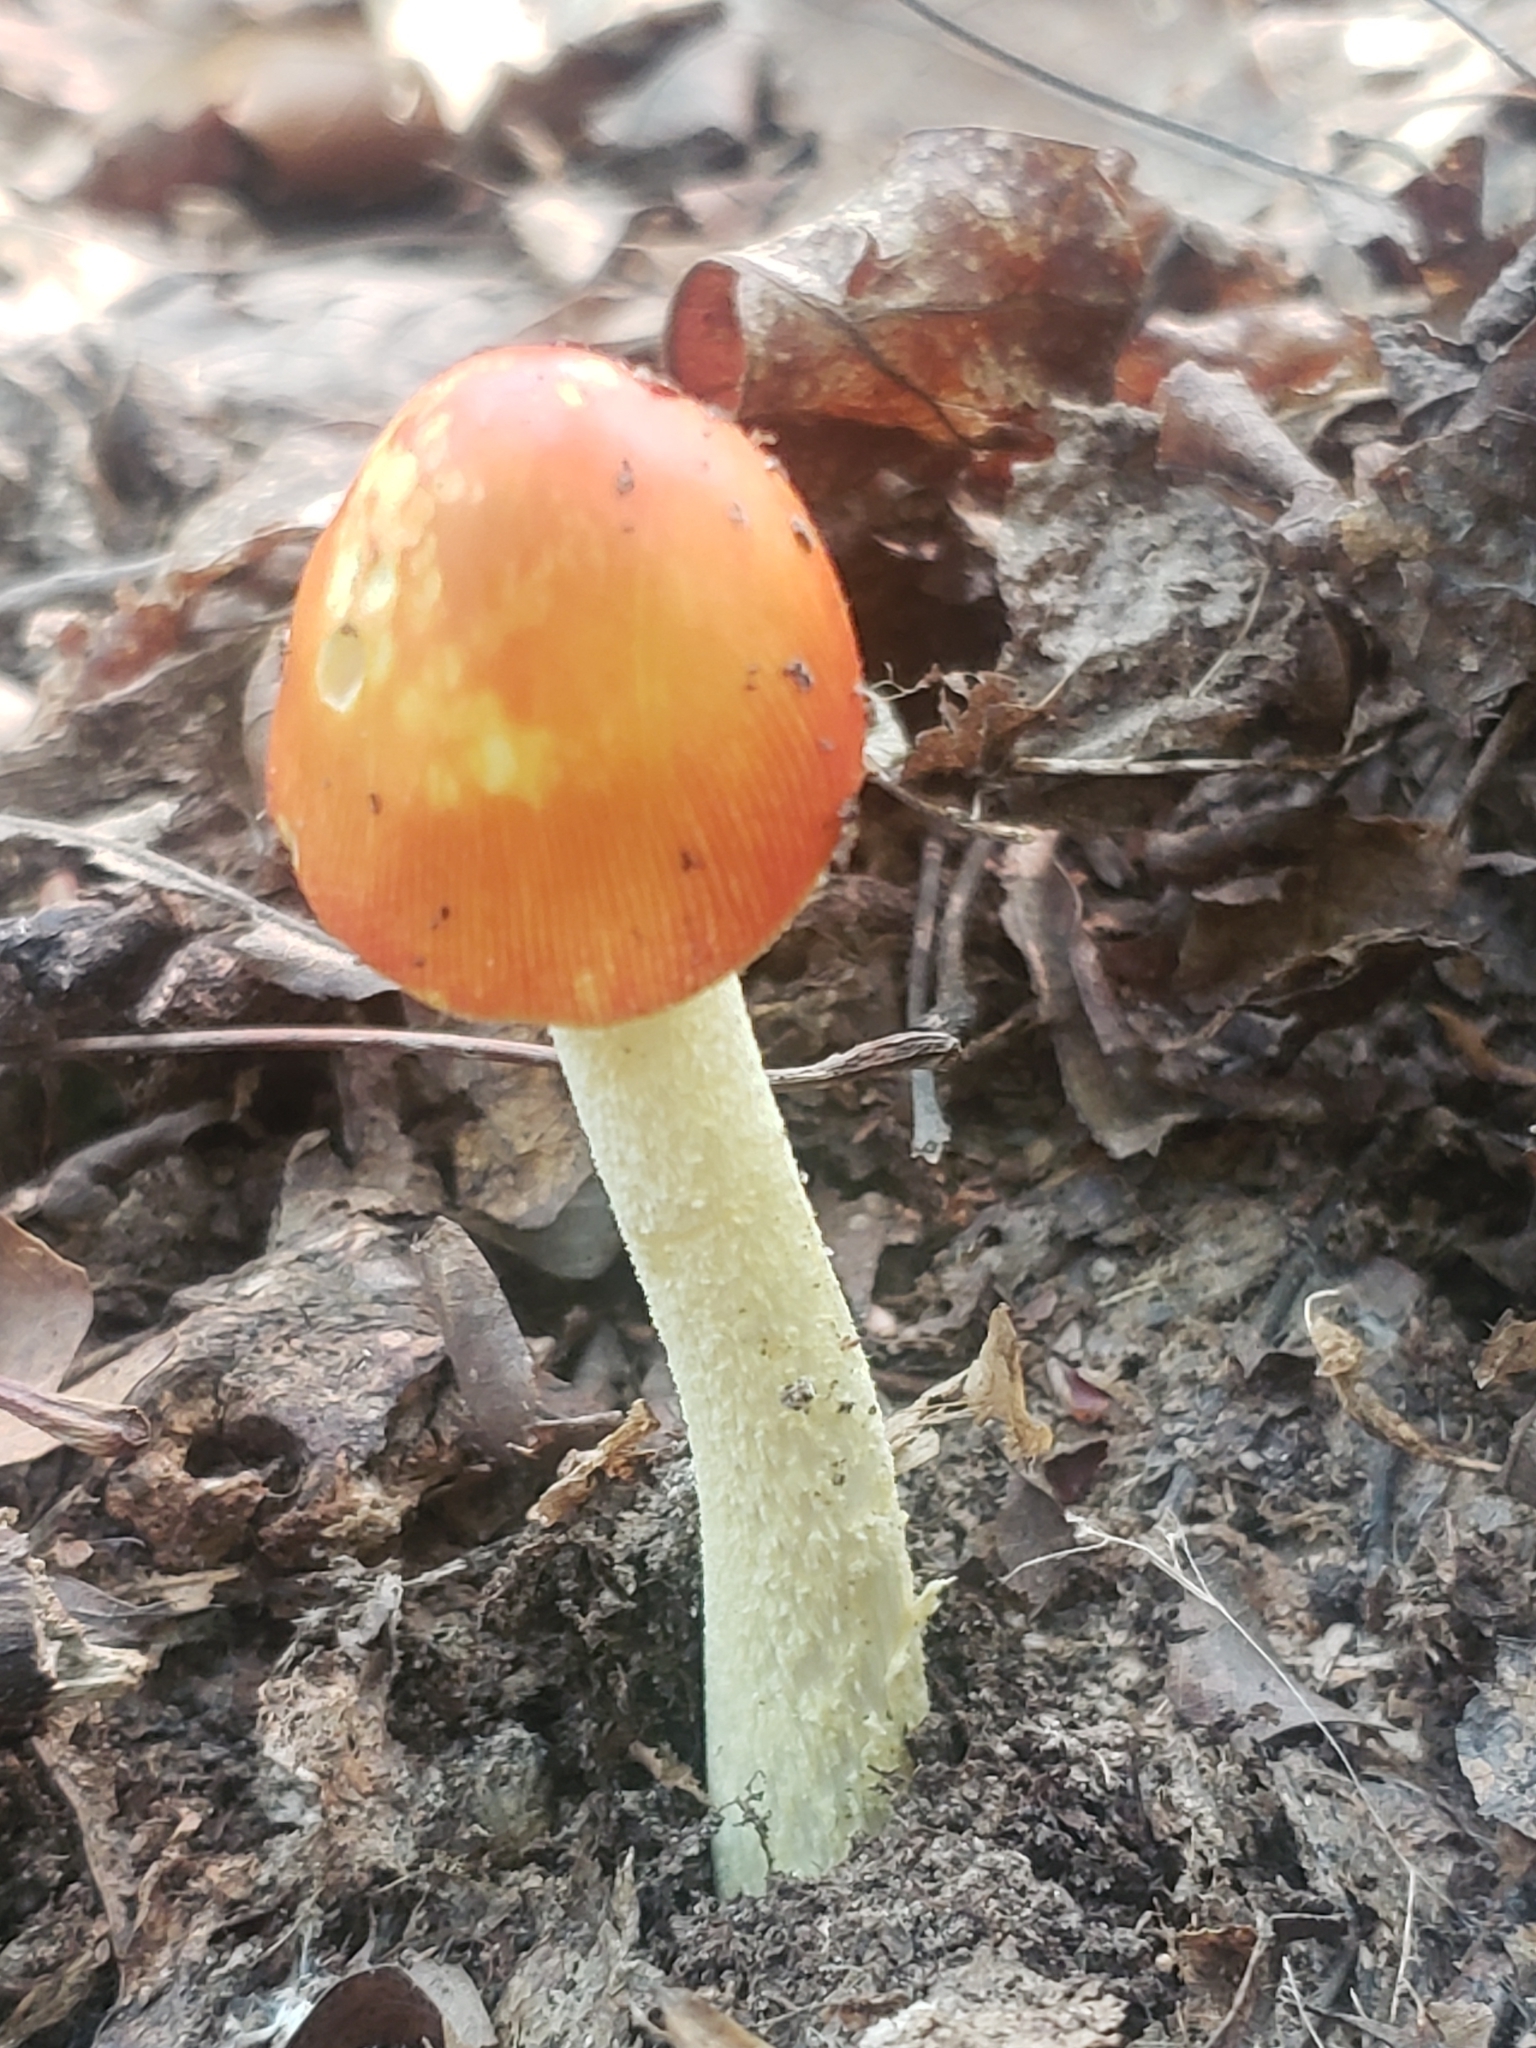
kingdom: Fungi
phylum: Basidiomycota
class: Agaricomycetes
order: Agaricales
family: Amanitaceae
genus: Amanita
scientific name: Amanita parcivolvata
